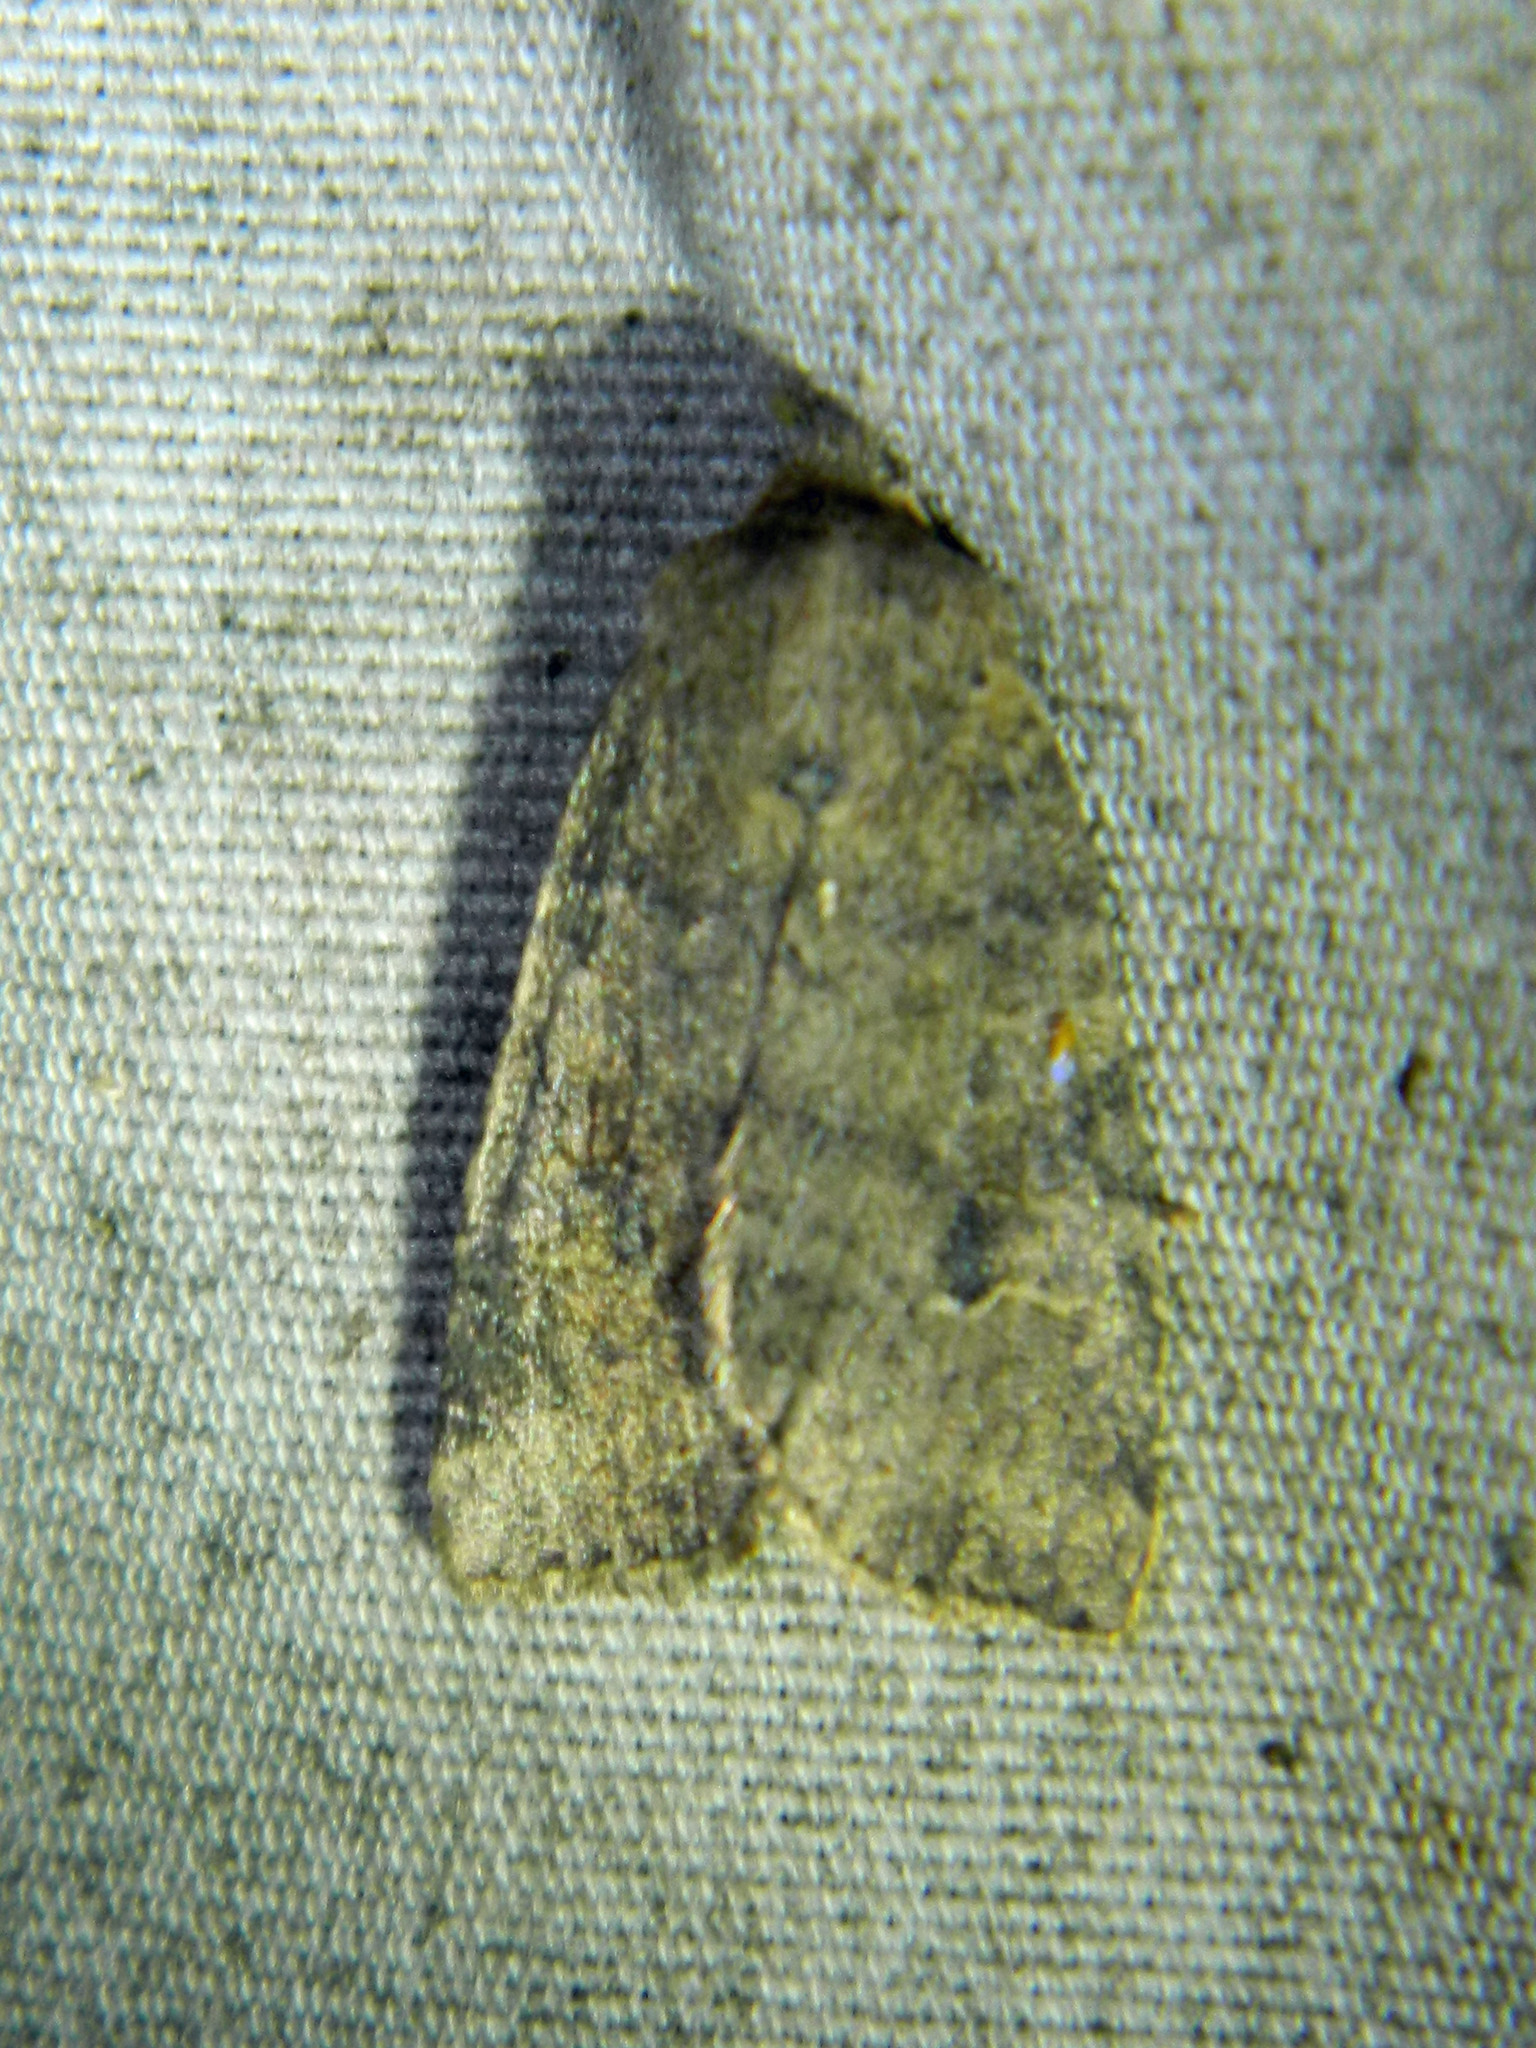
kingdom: Animalia
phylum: Arthropoda
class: Insecta
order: Lepidoptera
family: Noctuidae
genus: Xestia
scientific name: Xestia smithii
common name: Smith's dart
